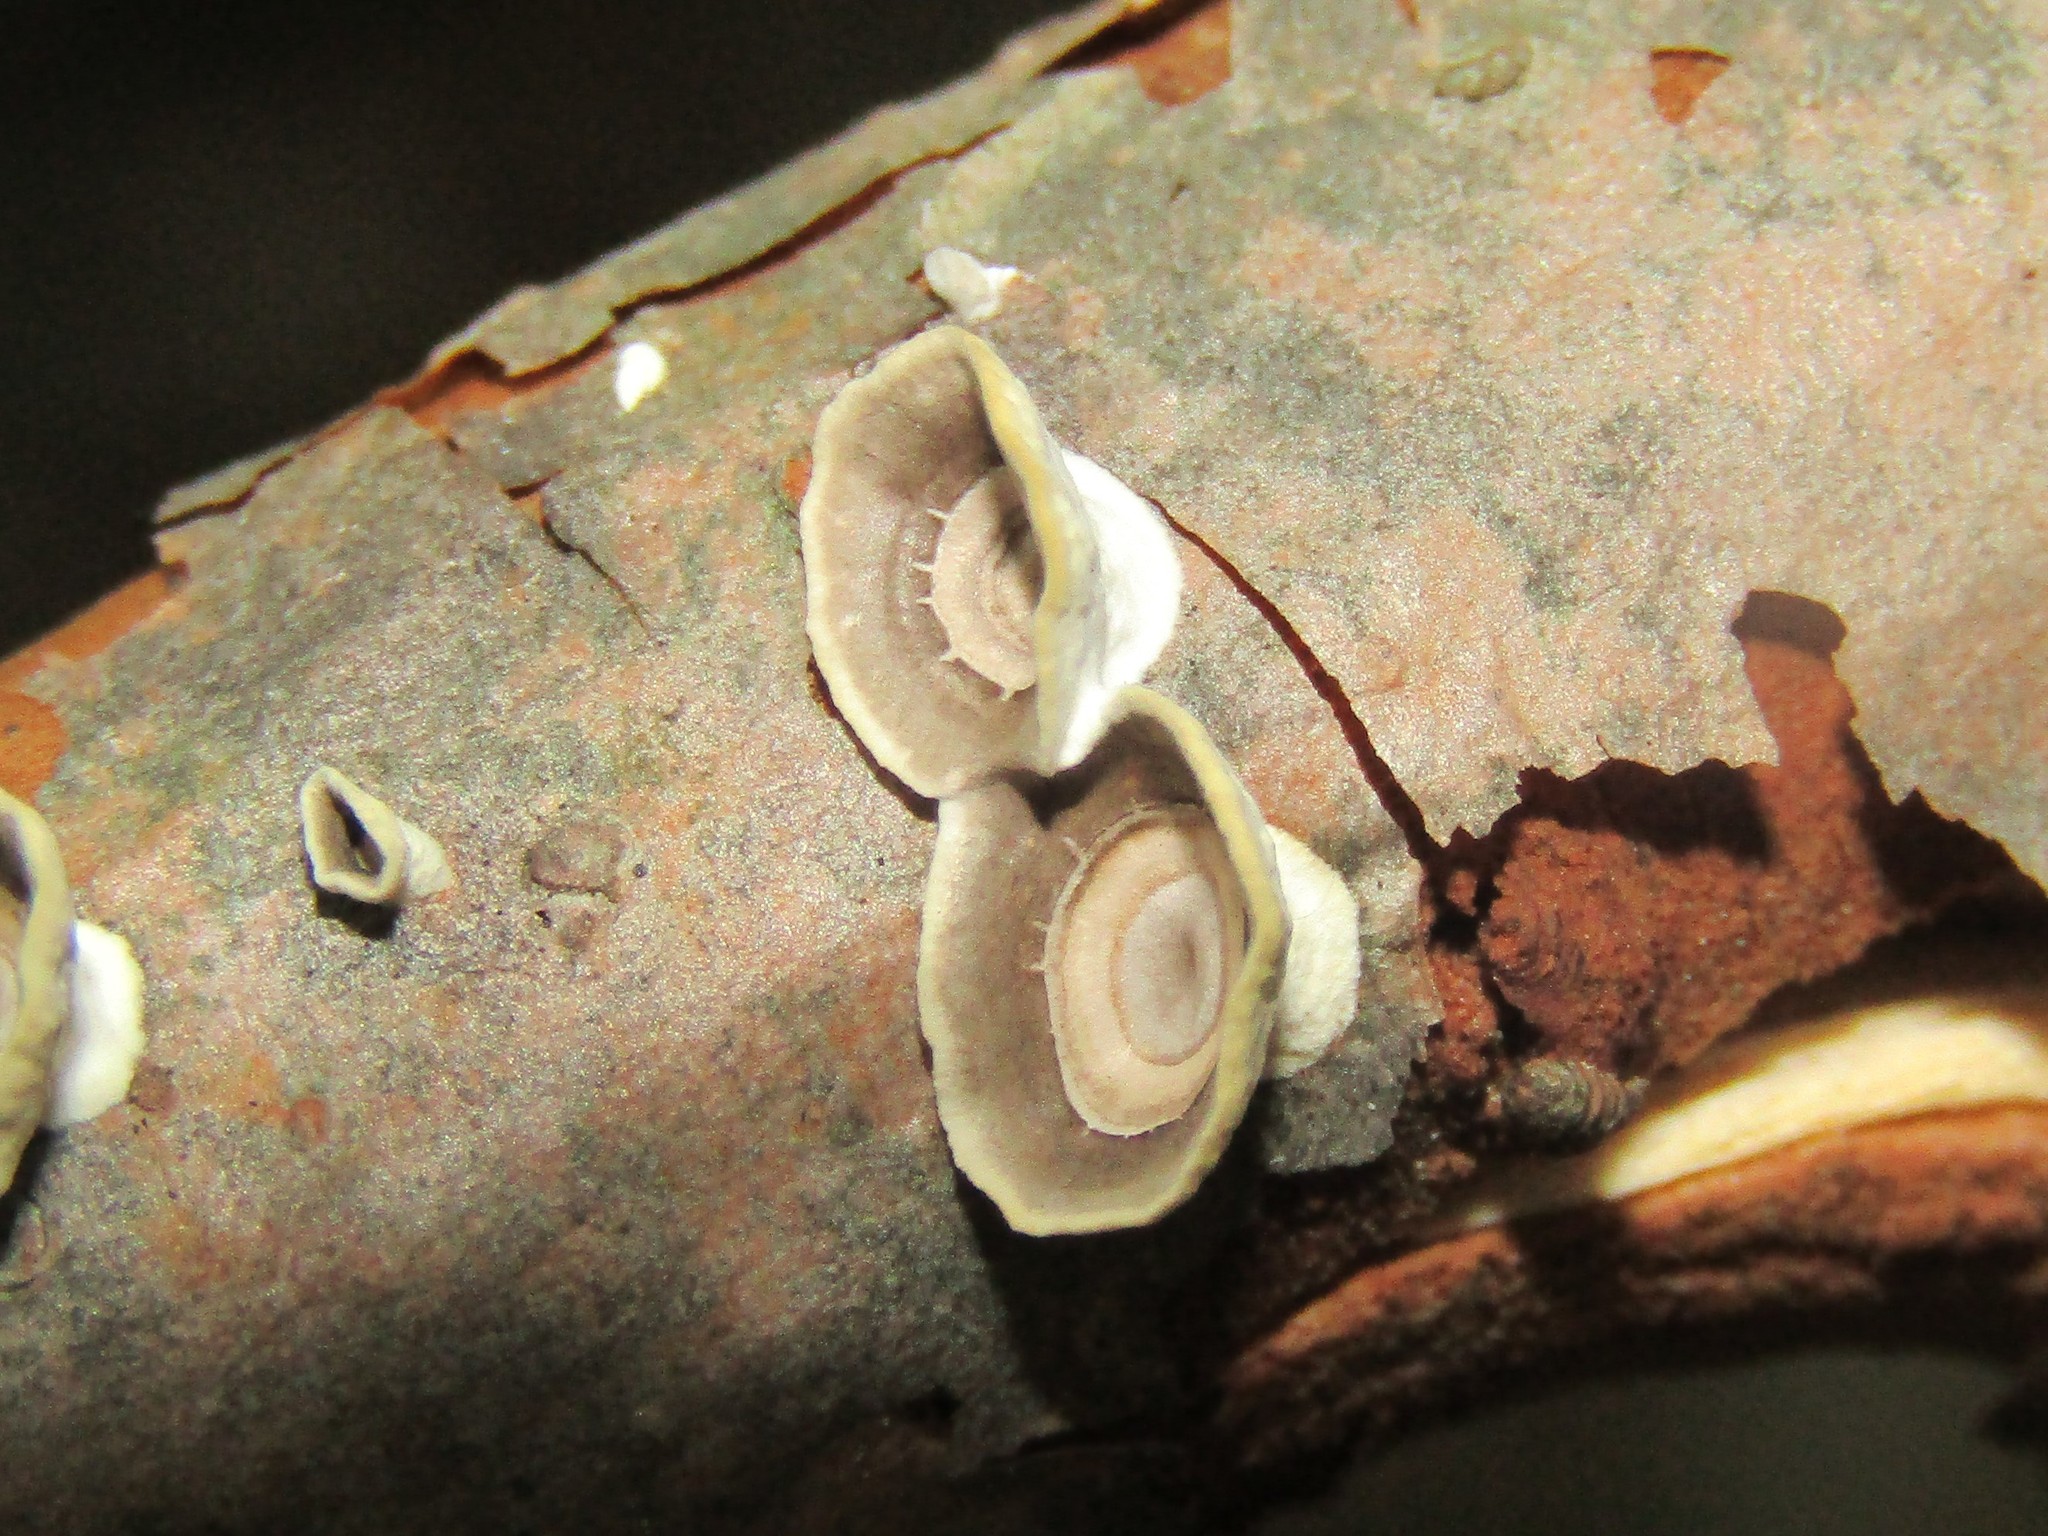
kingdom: Fungi
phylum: Basidiomycota
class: Agaricomycetes
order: Polyporales
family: Polyporaceae
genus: Poronidulus
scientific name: Poronidulus conchifer
